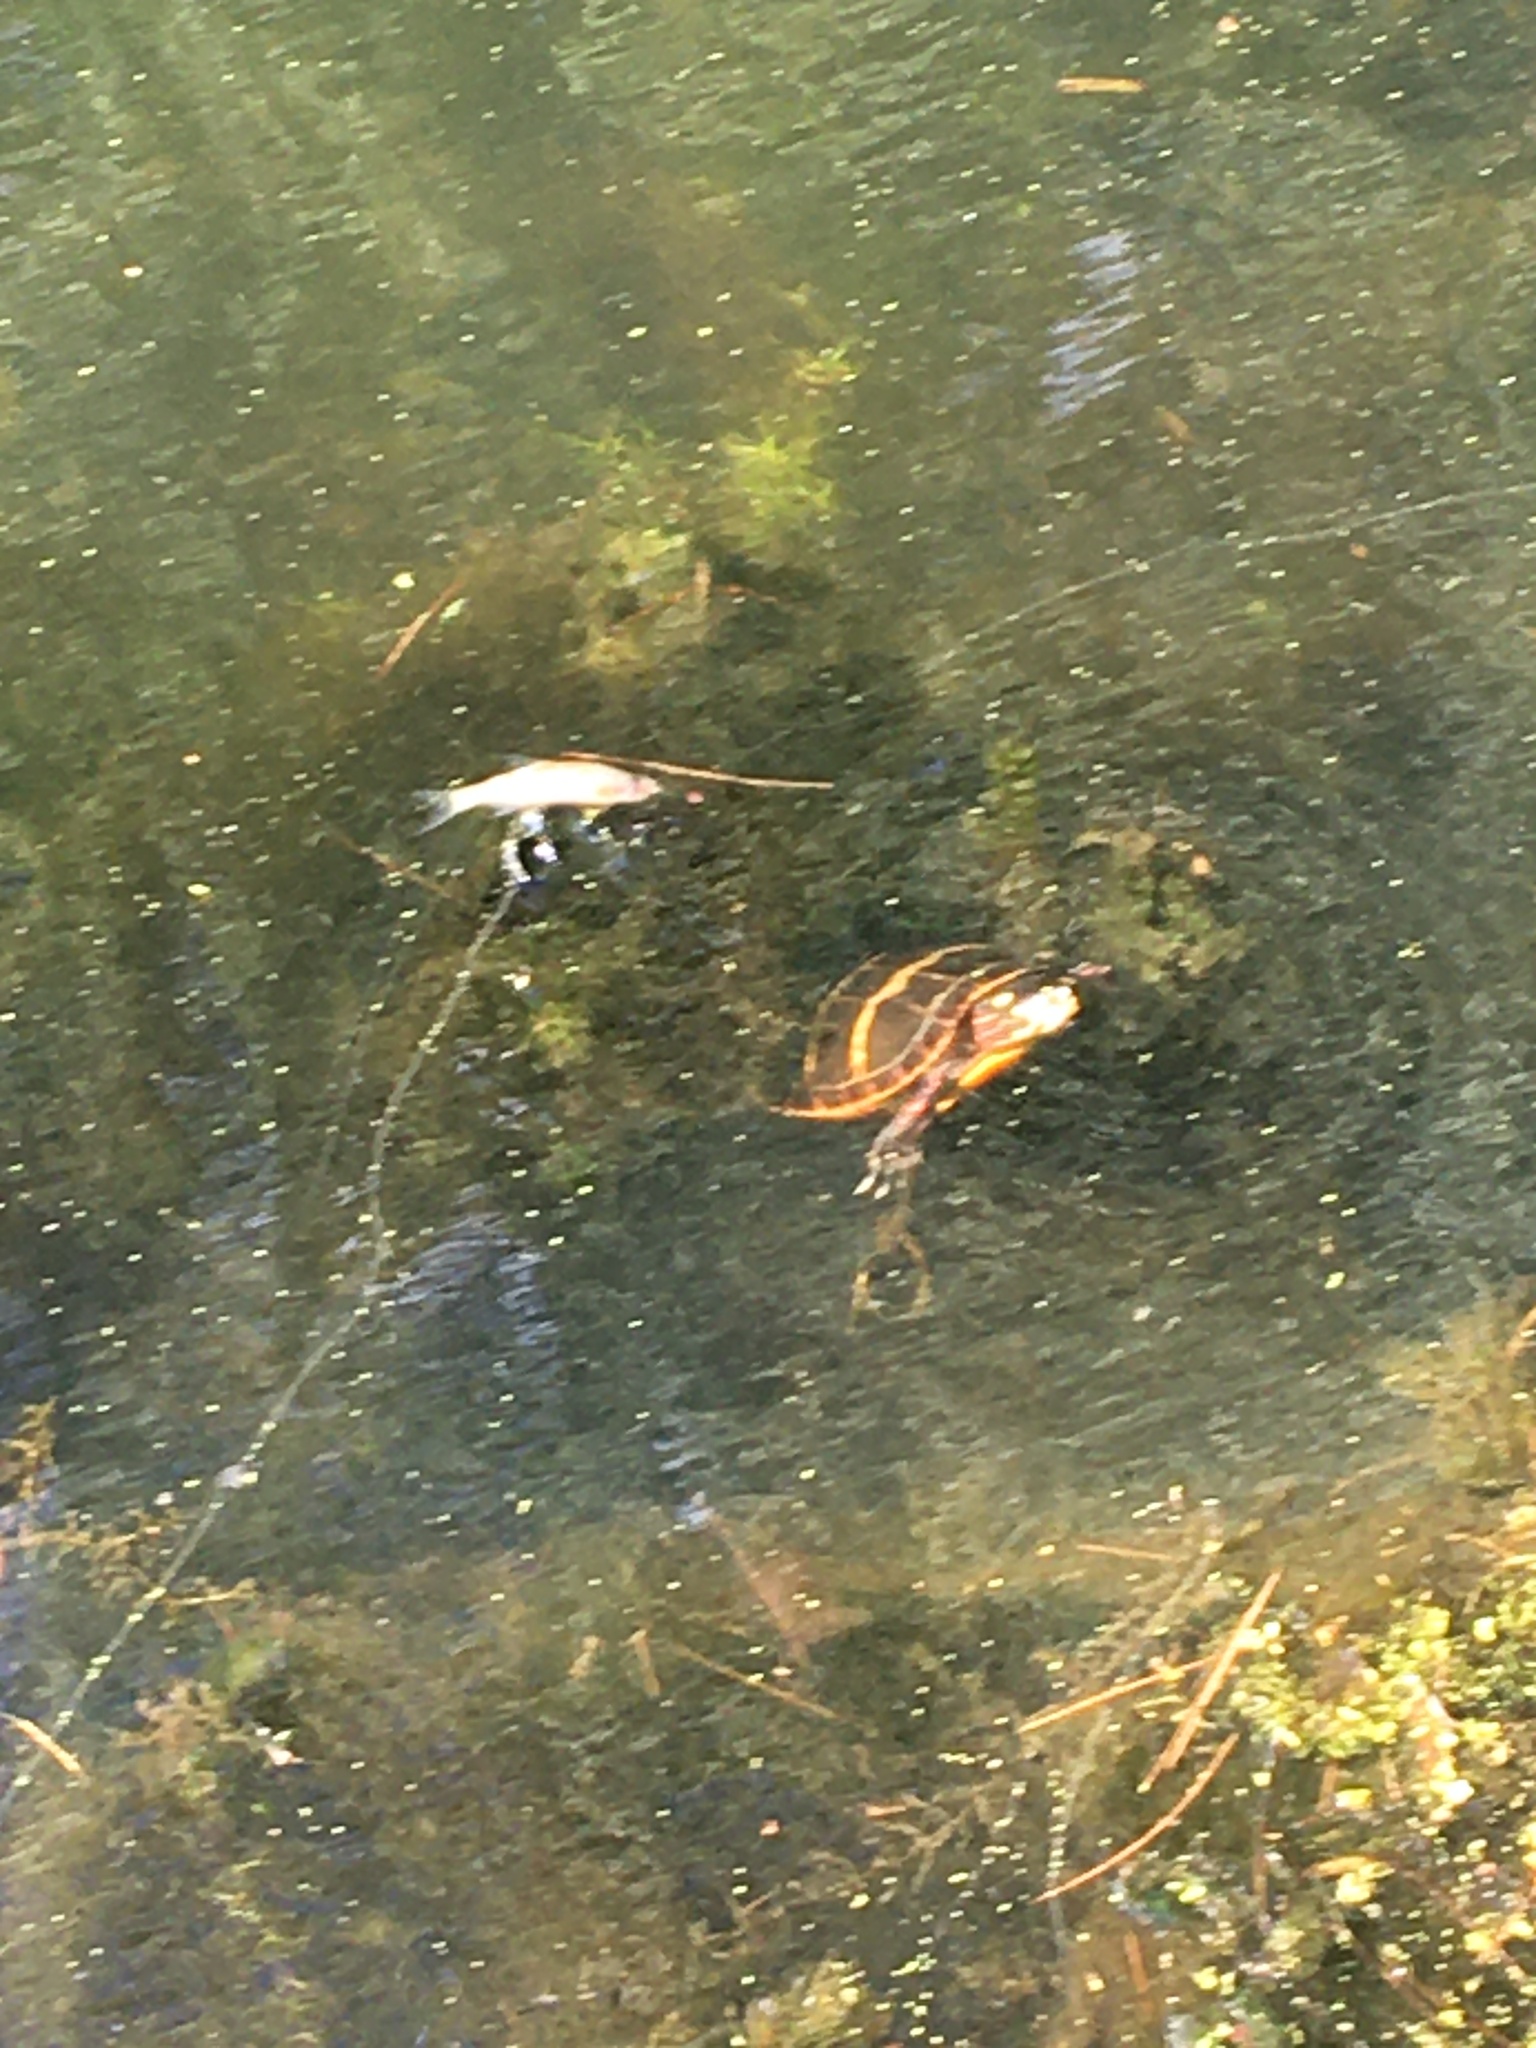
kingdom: Animalia
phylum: Chordata
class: Testudines
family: Emydidae
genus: Chrysemys
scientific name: Chrysemys picta
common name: Painted turtle
